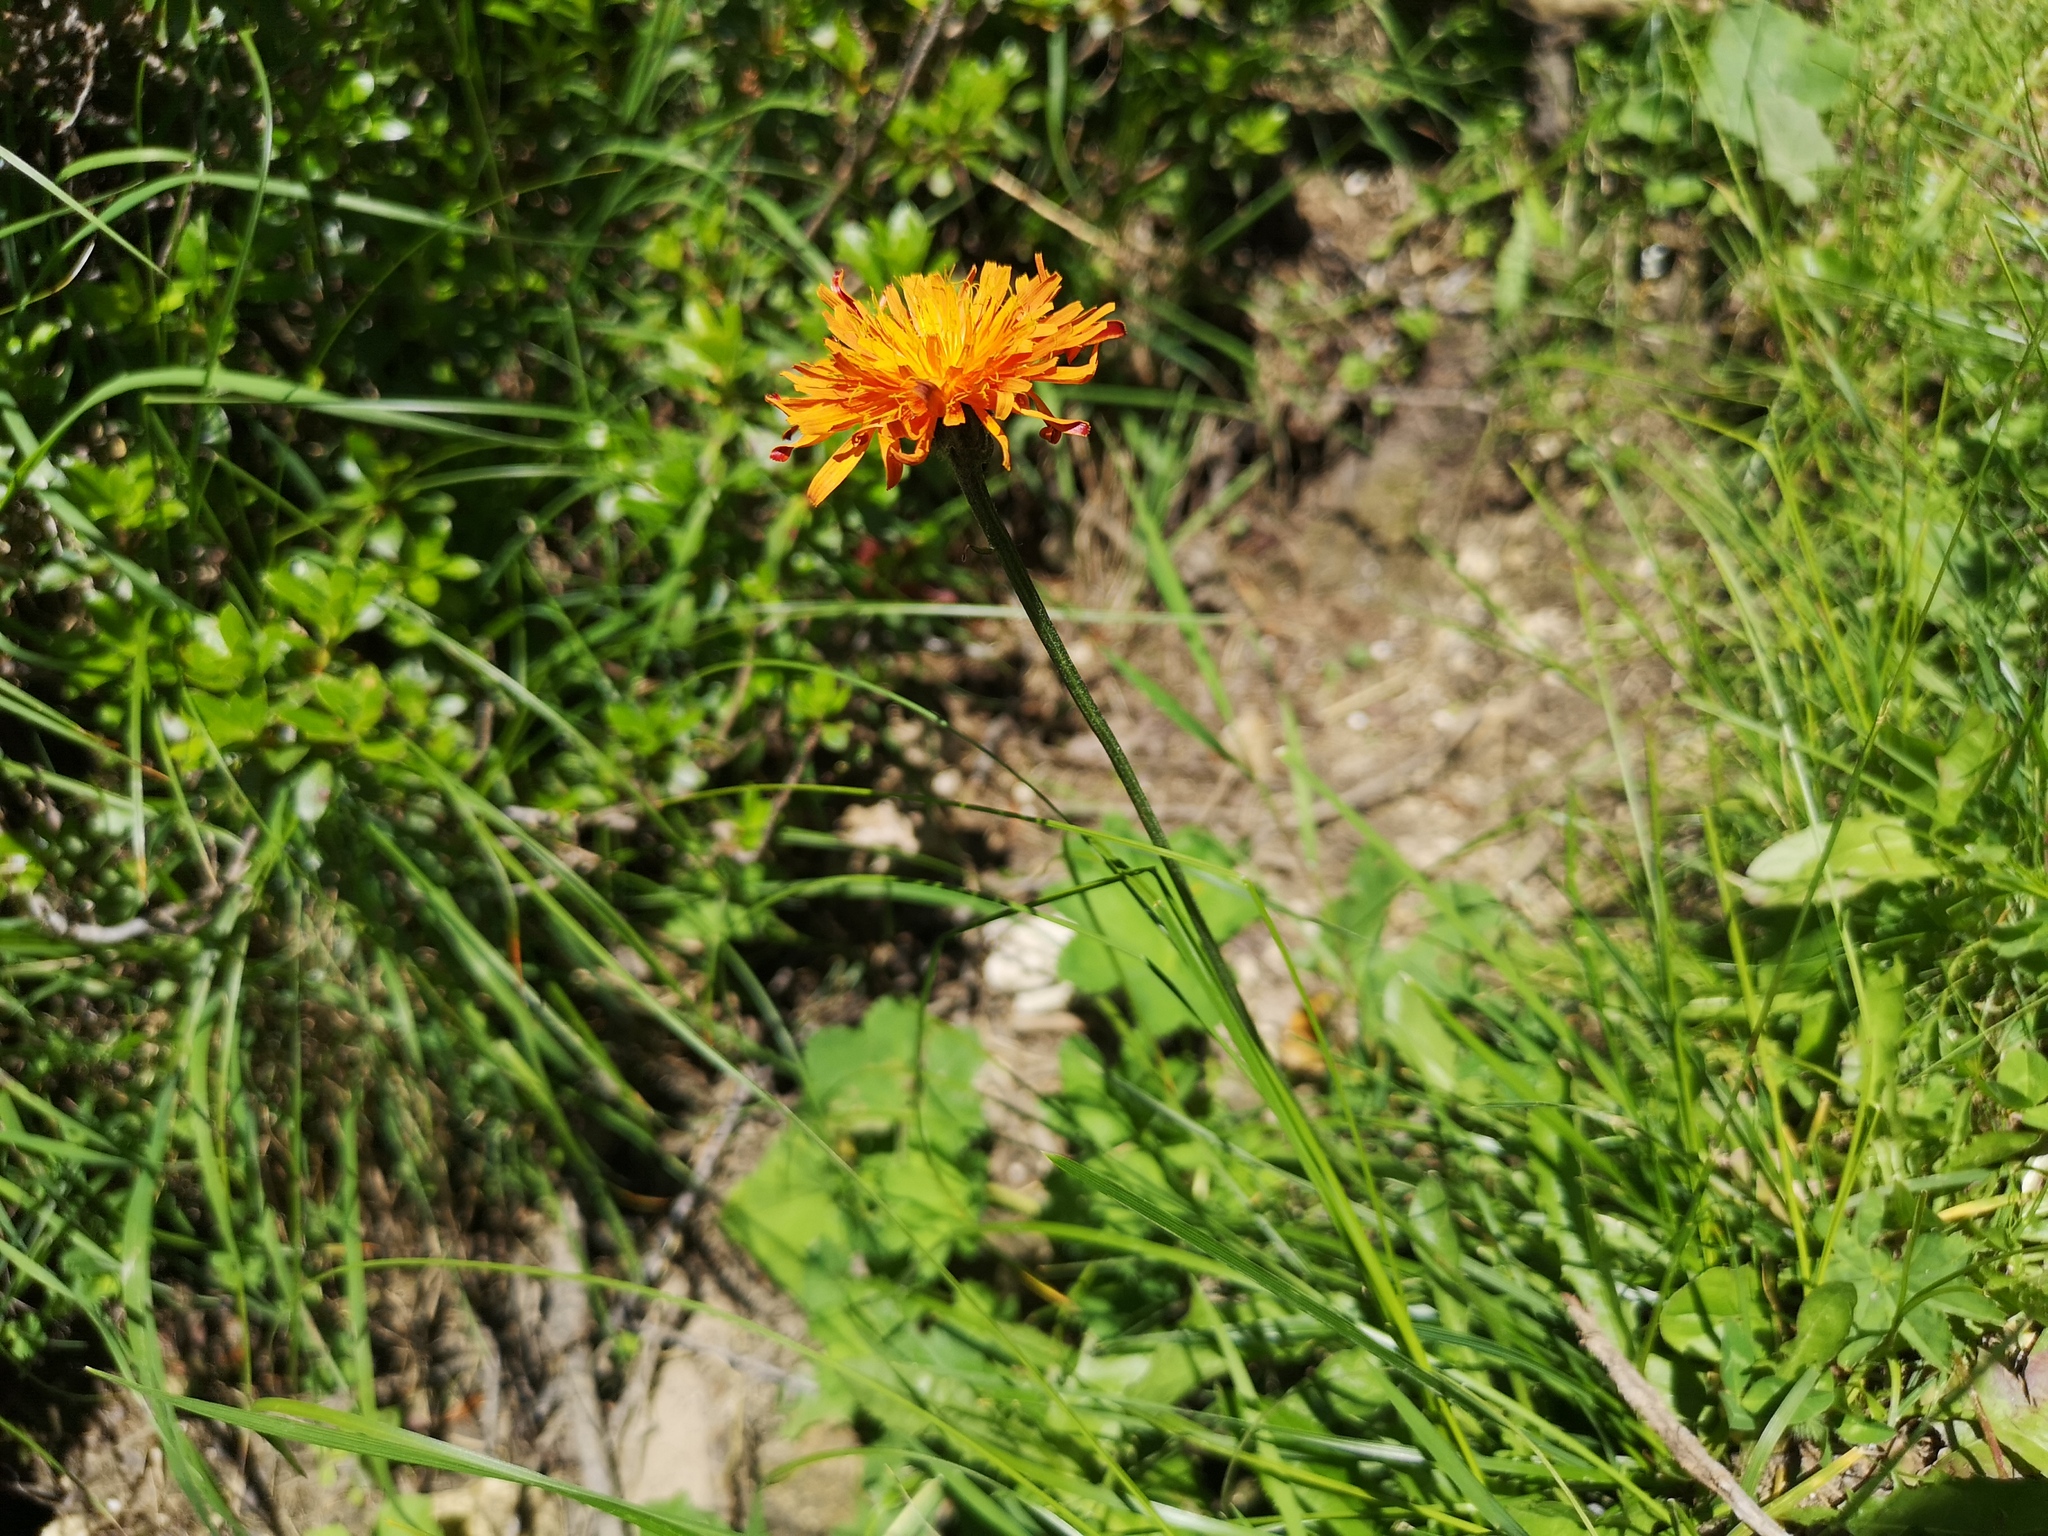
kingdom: Plantae
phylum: Tracheophyta
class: Magnoliopsida
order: Asterales
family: Asteraceae
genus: Crepis
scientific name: Crepis aurea
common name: Golden hawk's-beard
